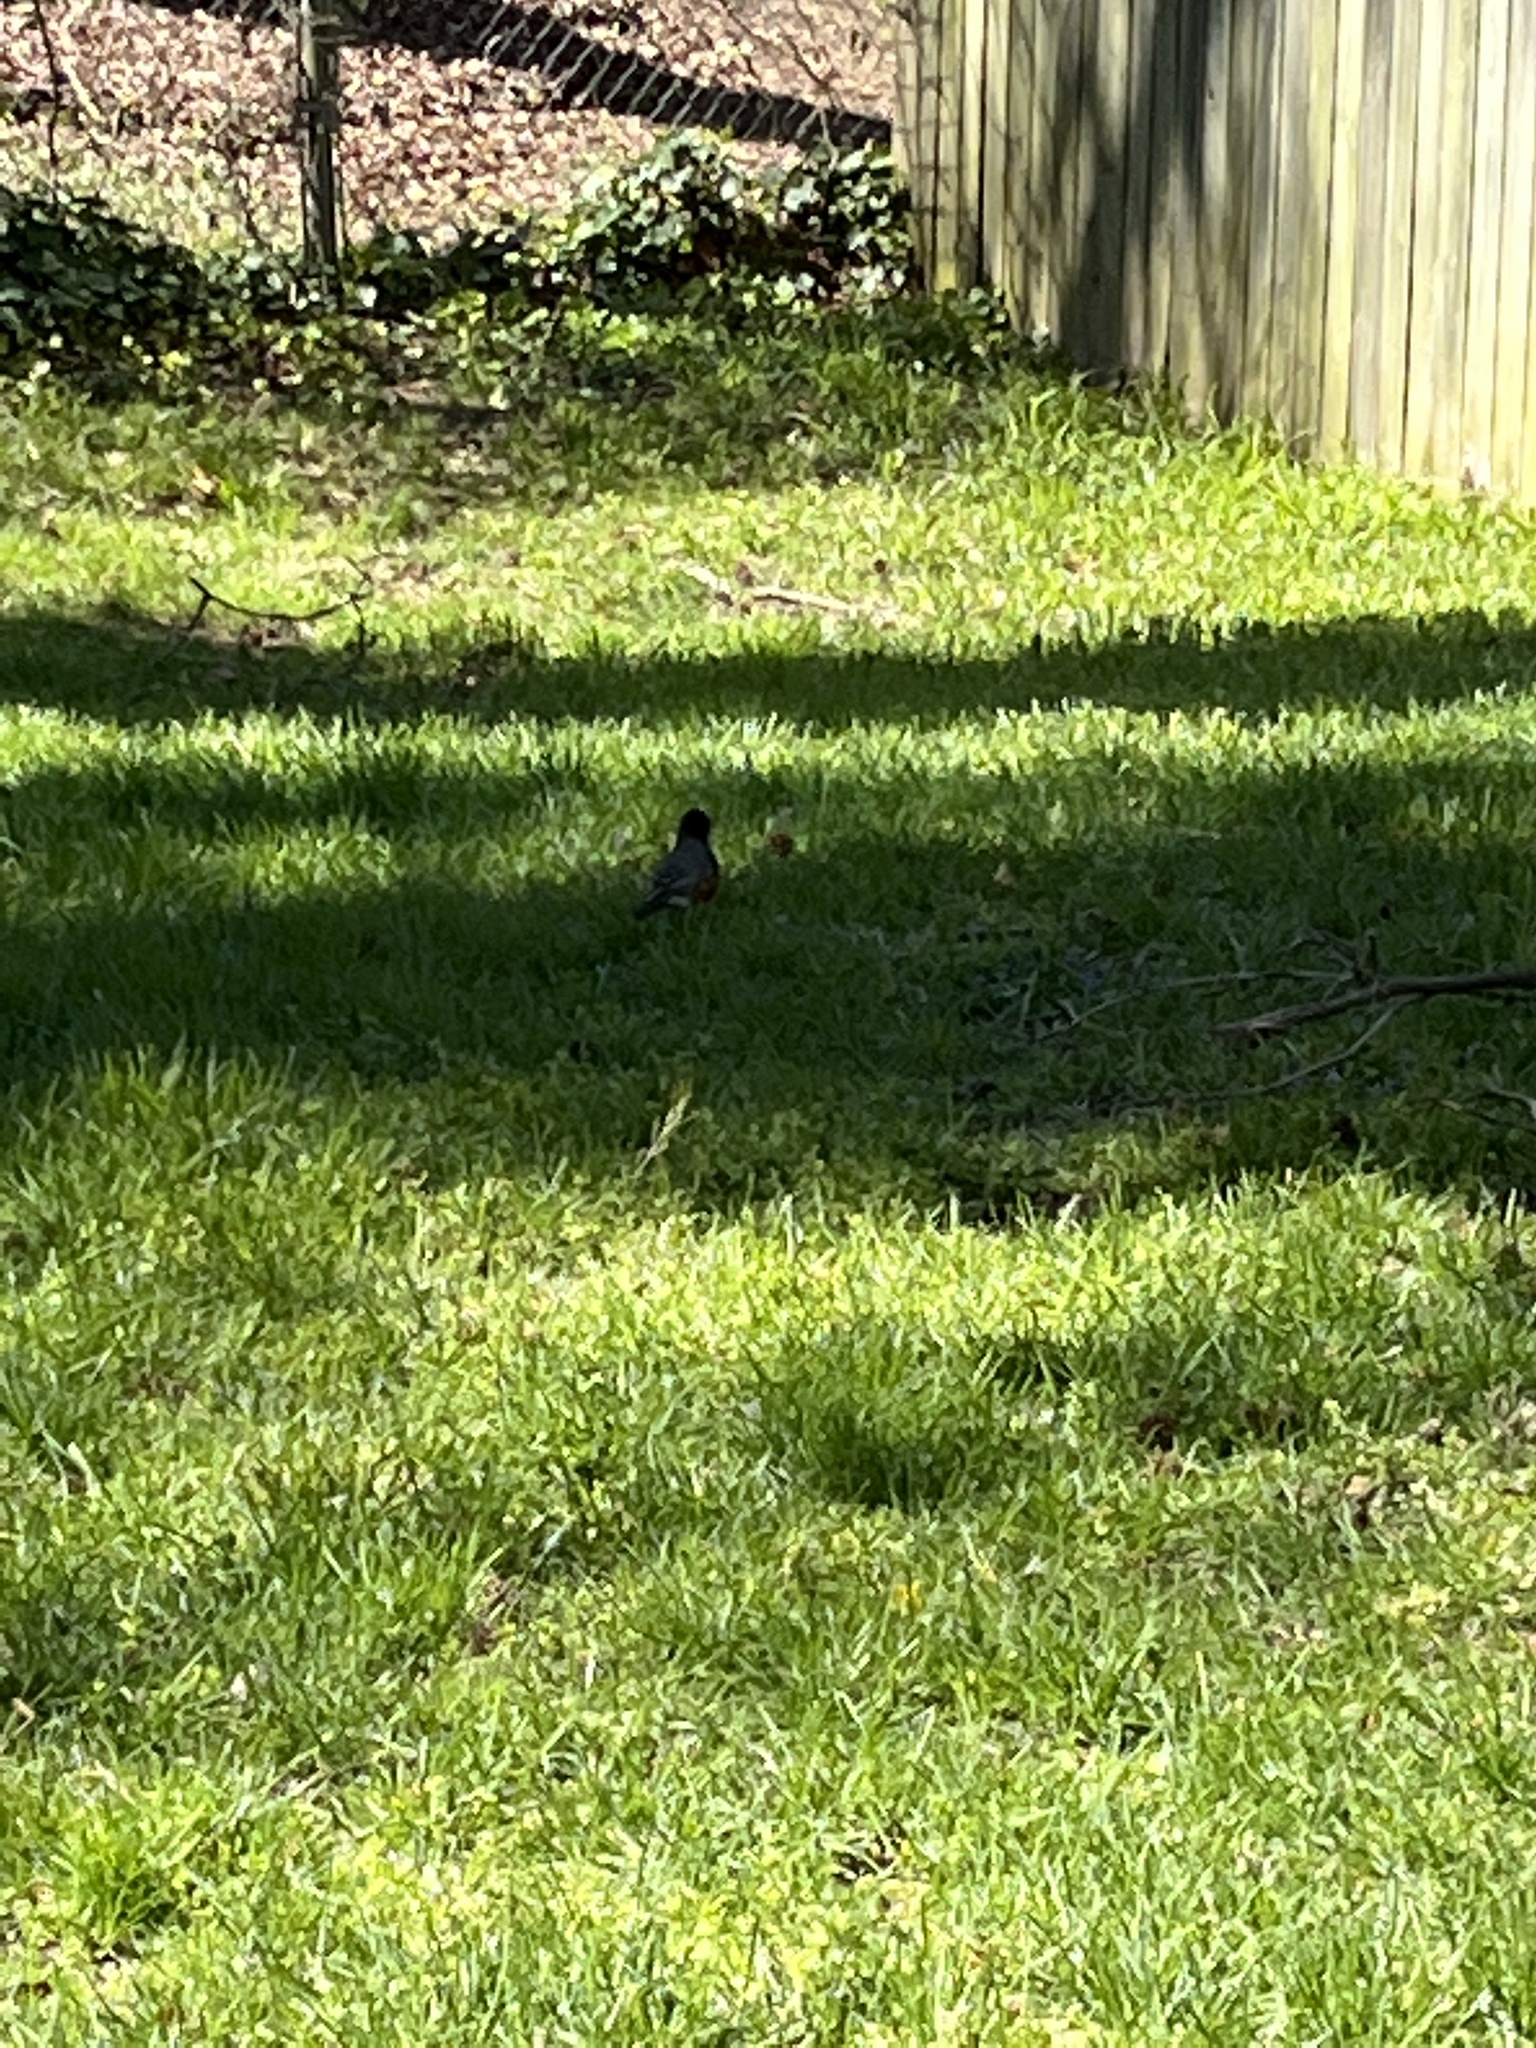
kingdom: Animalia
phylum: Chordata
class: Aves
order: Passeriformes
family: Turdidae
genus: Turdus
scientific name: Turdus migratorius
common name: American robin
